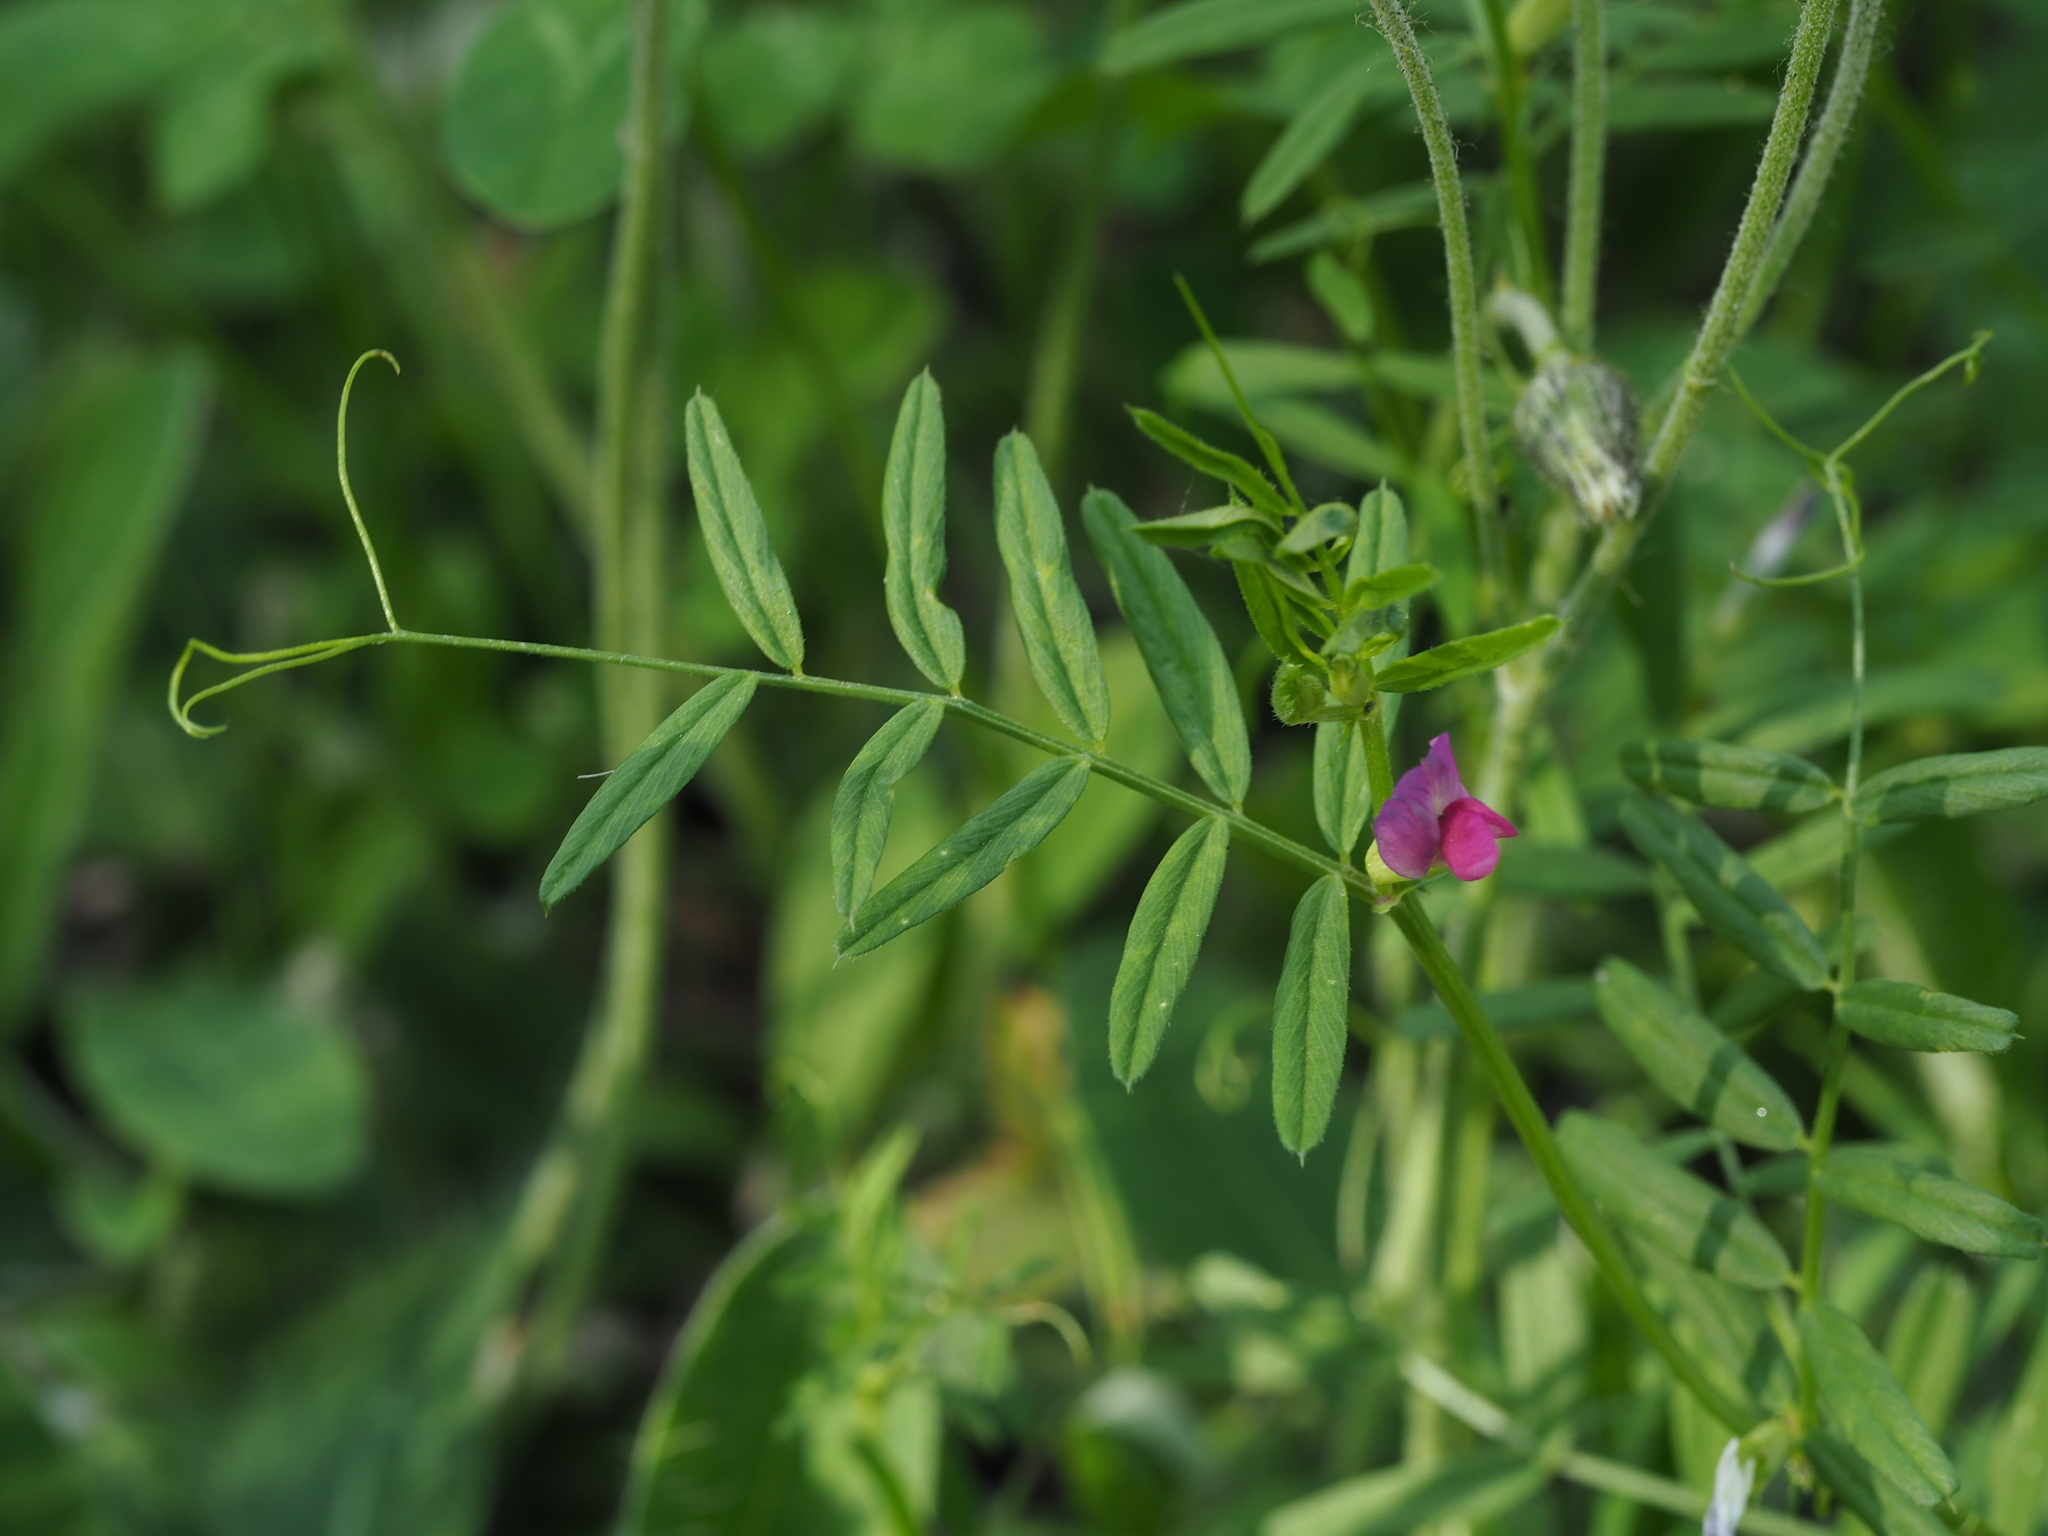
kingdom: Plantae
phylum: Tracheophyta
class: Magnoliopsida
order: Fabales
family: Fabaceae
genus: Vicia
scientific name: Vicia sativa
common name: Garden vetch
